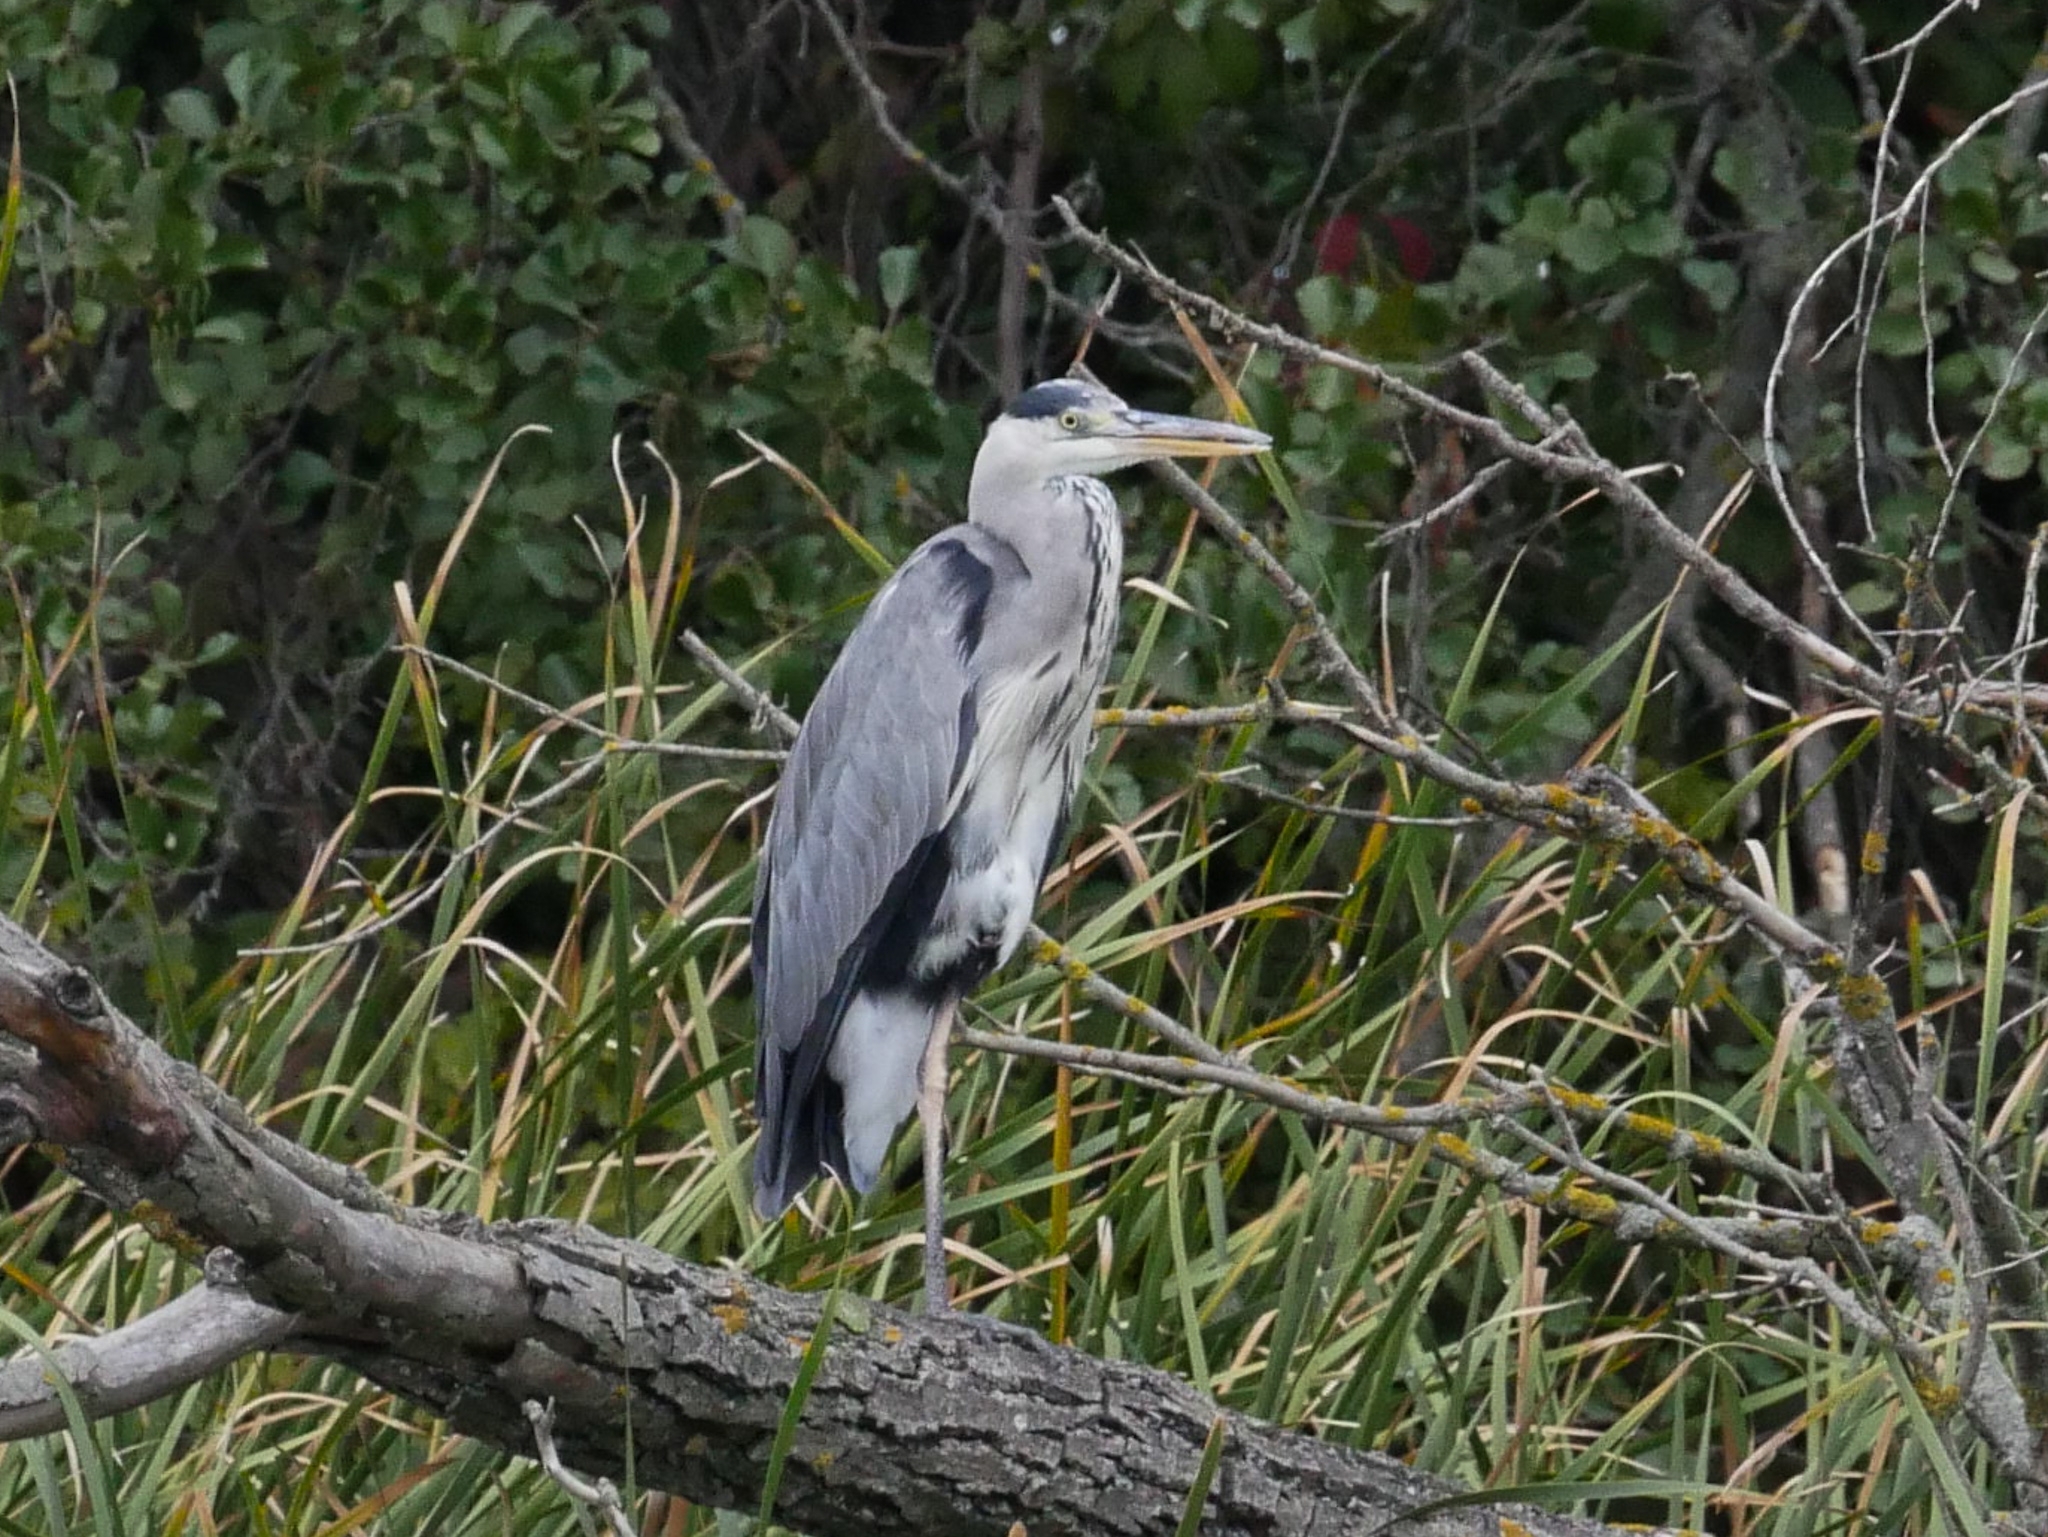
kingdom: Animalia
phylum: Chordata
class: Aves
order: Pelecaniformes
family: Ardeidae
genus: Ardea
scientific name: Ardea cinerea
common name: Grey heron
